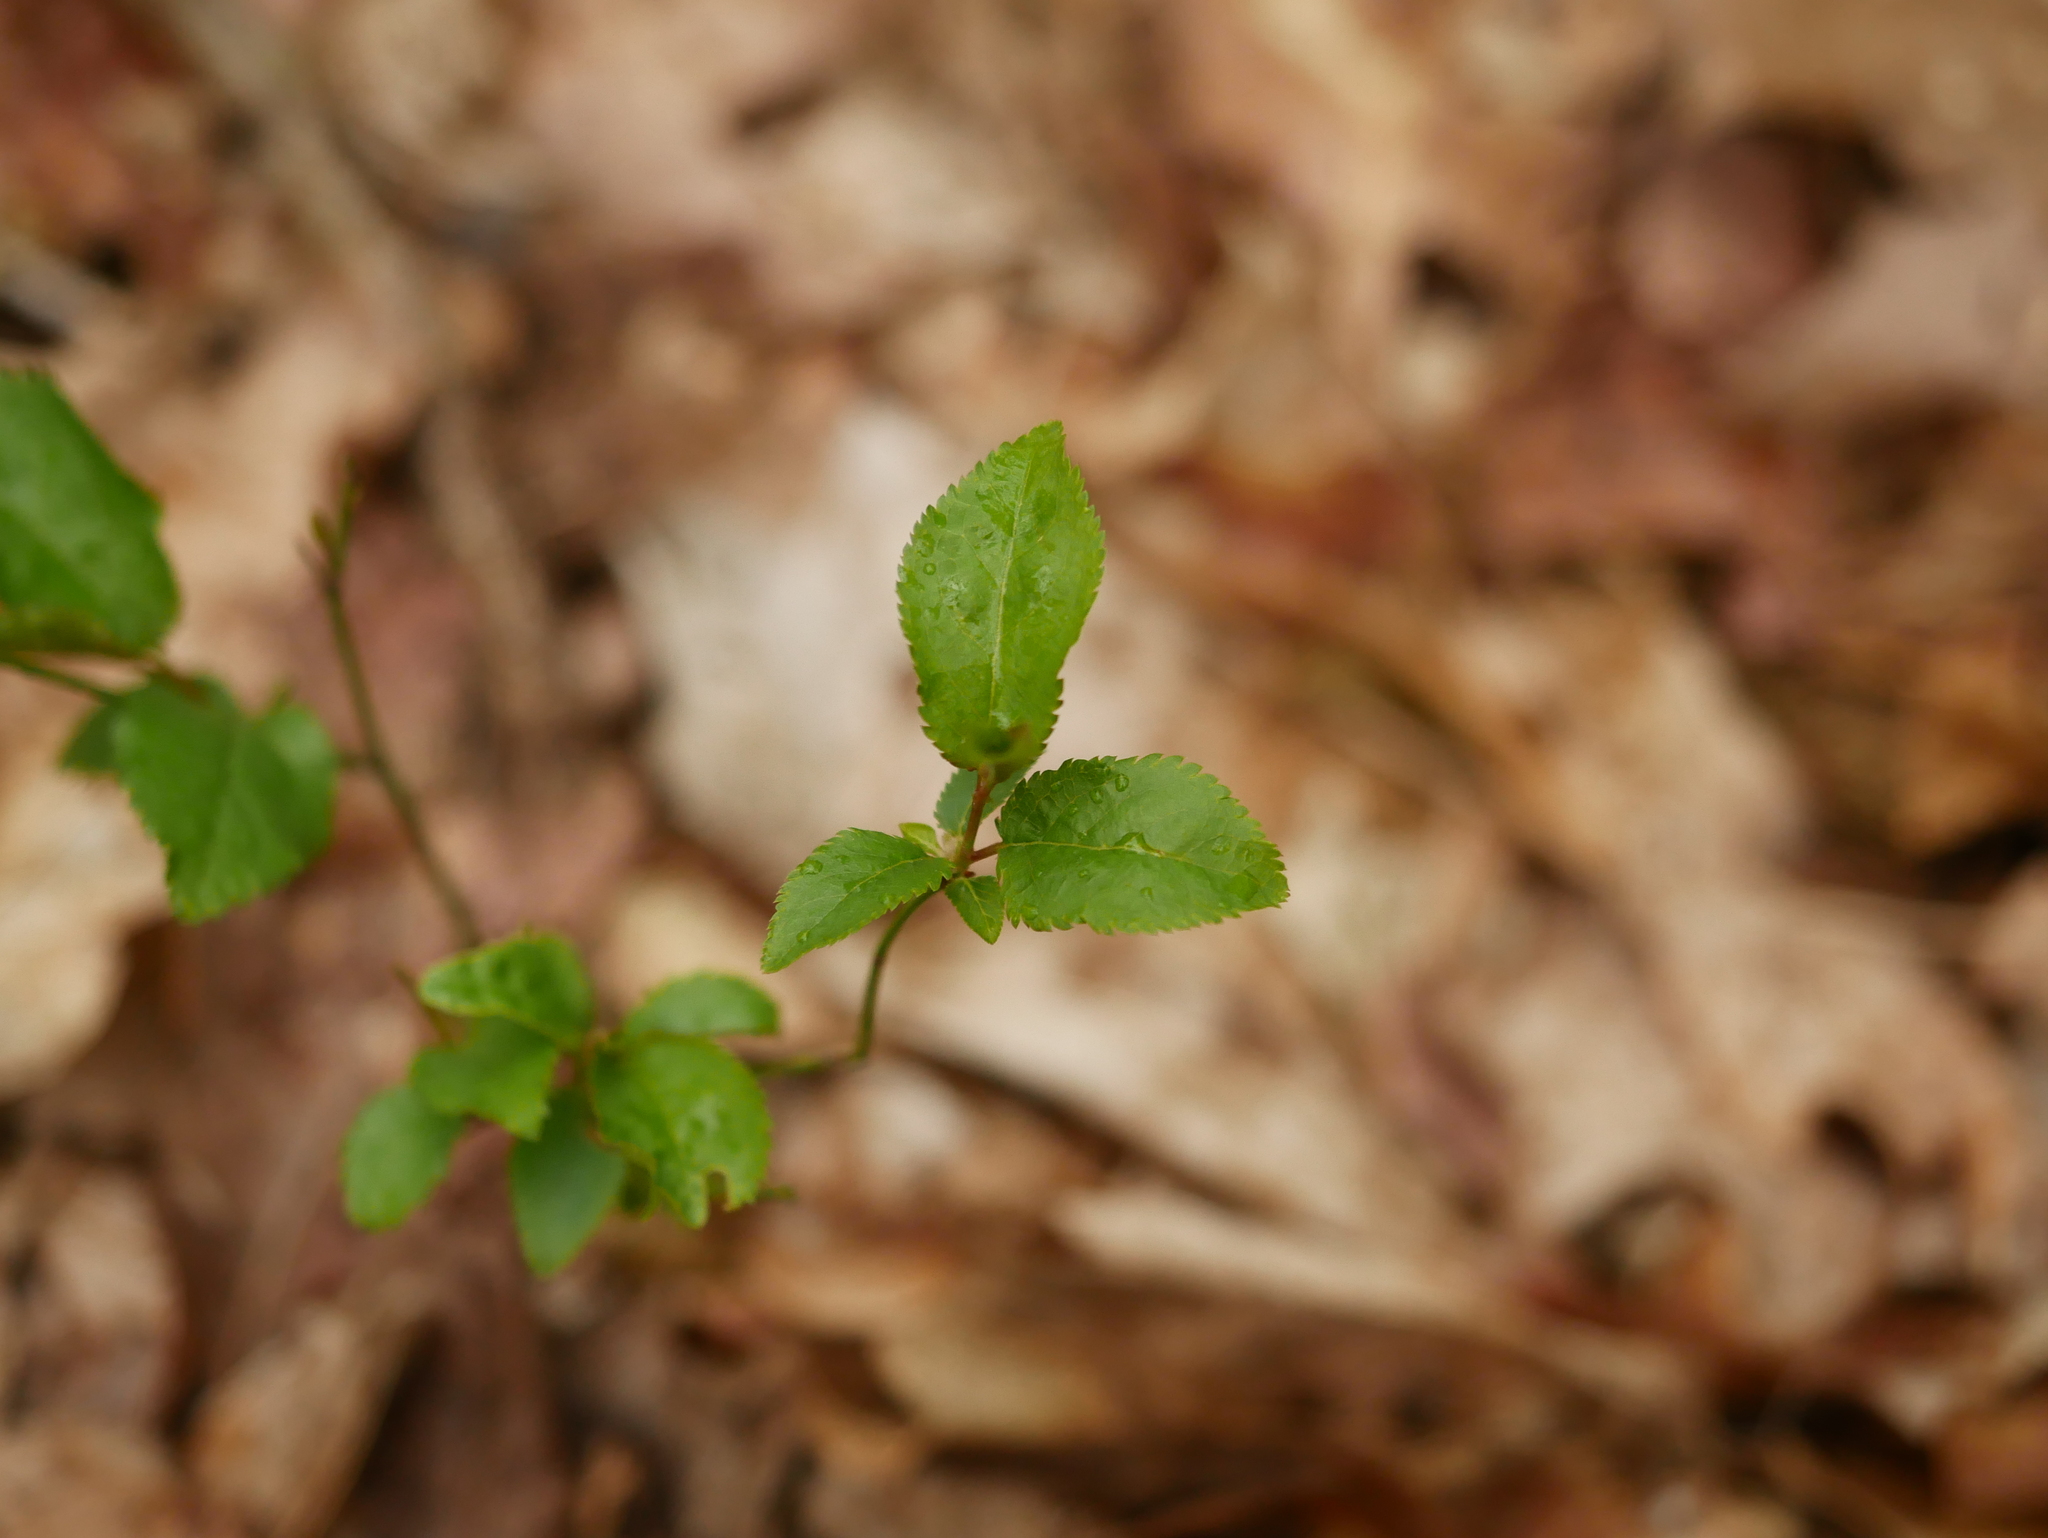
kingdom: Plantae
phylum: Tracheophyta
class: Magnoliopsida
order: Rosales
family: Rosaceae
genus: Prunus
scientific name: Prunus cerasifera
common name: Cherry plum
